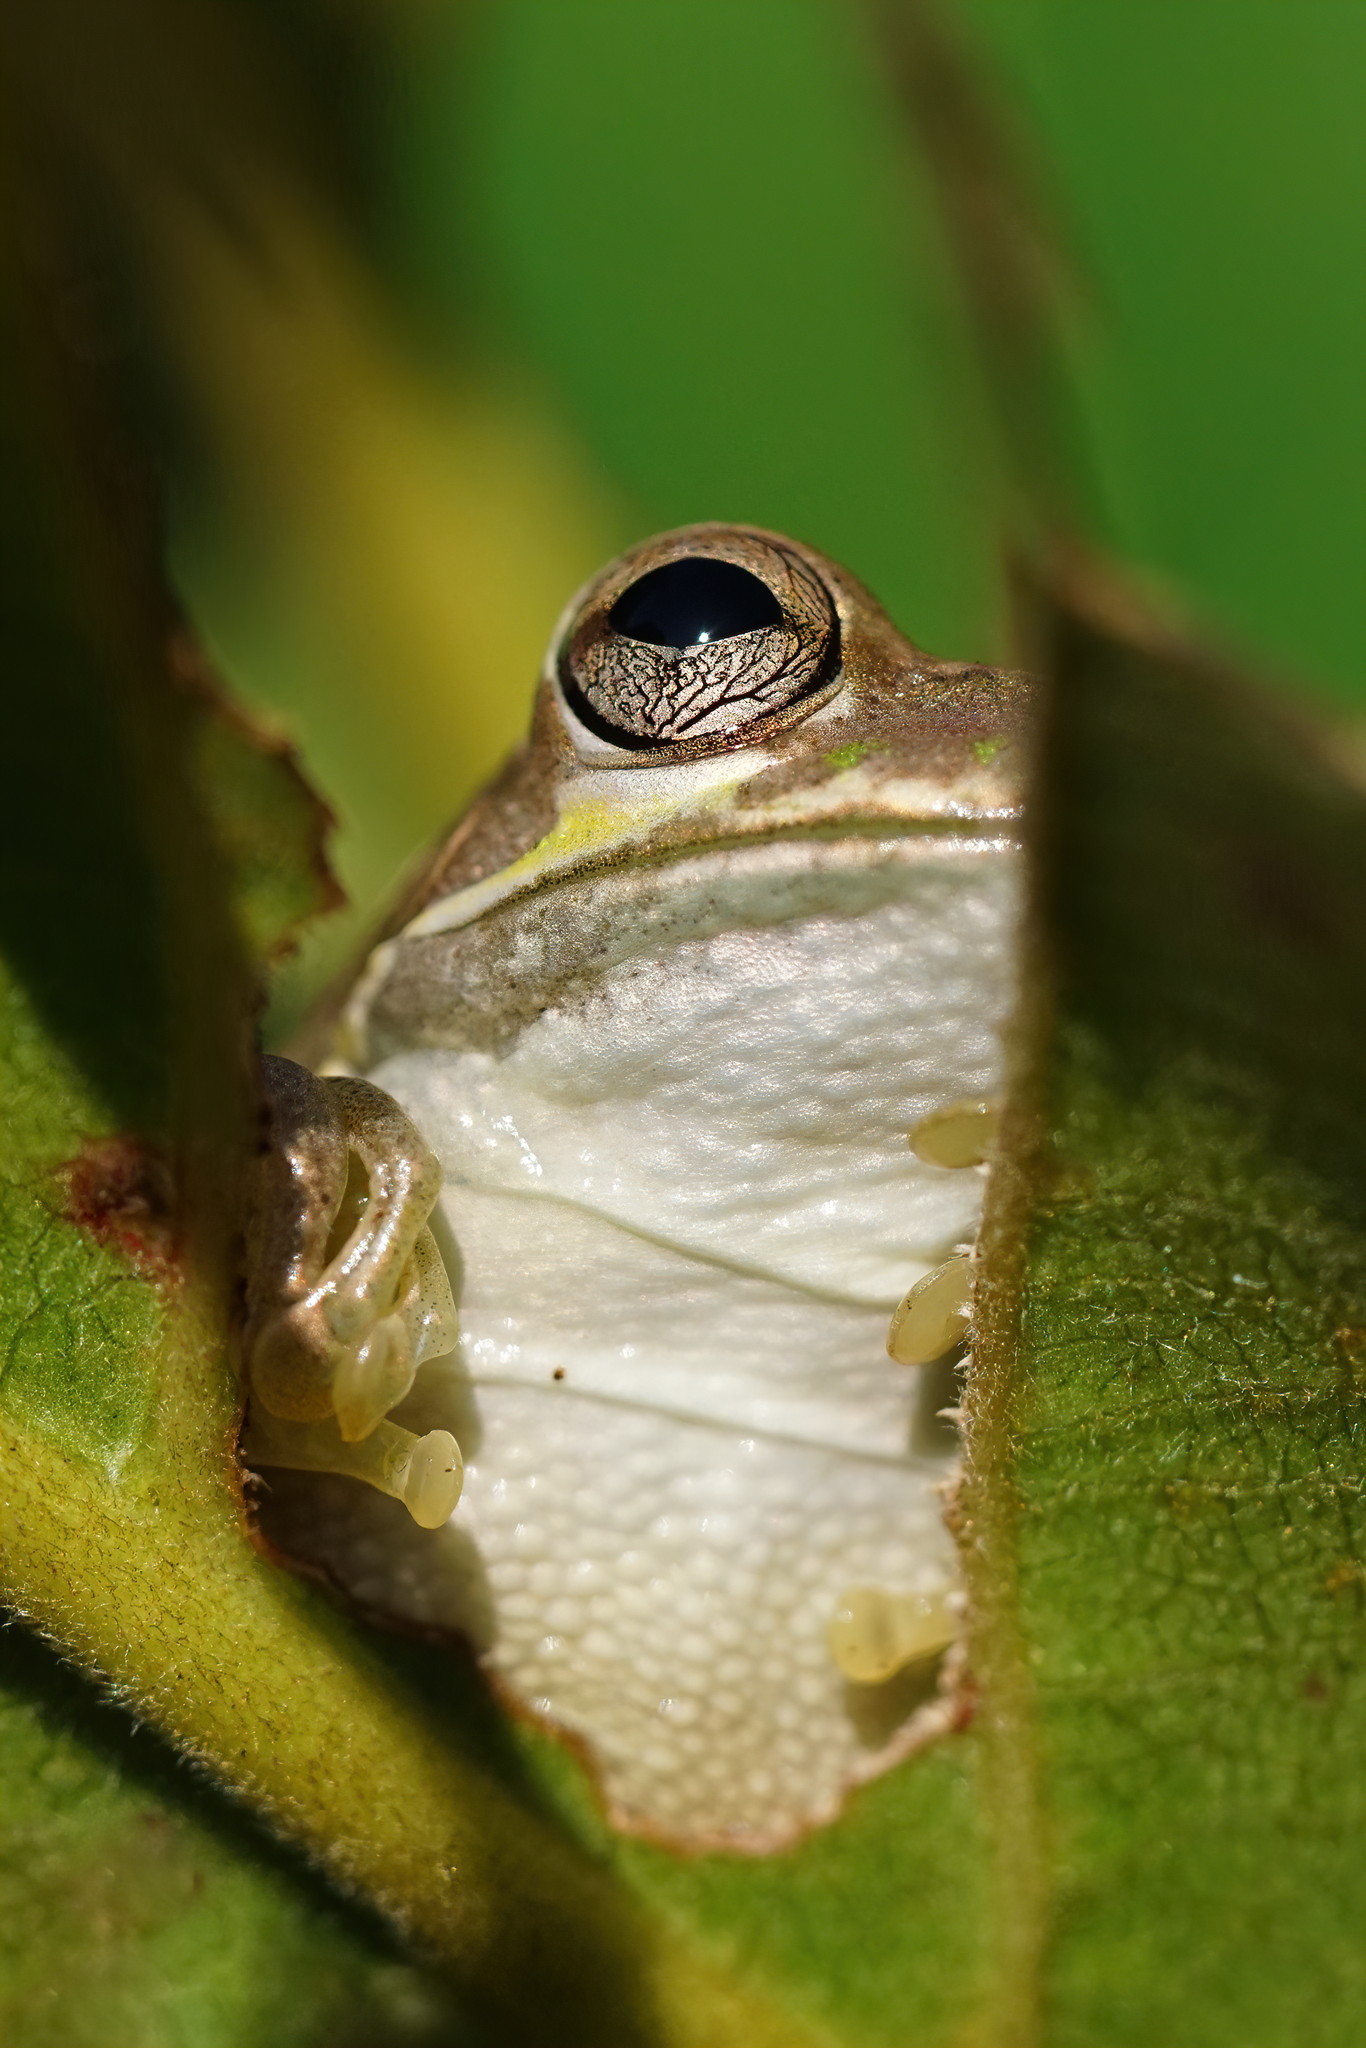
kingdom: Animalia
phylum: Chordata
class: Amphibia
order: Anura
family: Hylidae
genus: Osteopilus
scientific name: Osteopilus septentrionalis
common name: Cuban treefrog
